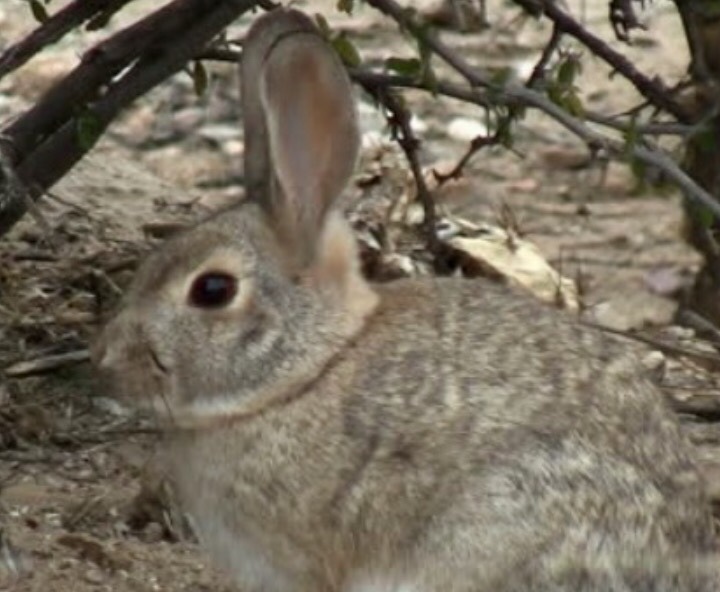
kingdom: Animalia
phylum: Chordata
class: Mammalia
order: Lagomorpha
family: Leporidae
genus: Sylvilagus
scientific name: Sylvilagus audubonii
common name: Desert cottontail
